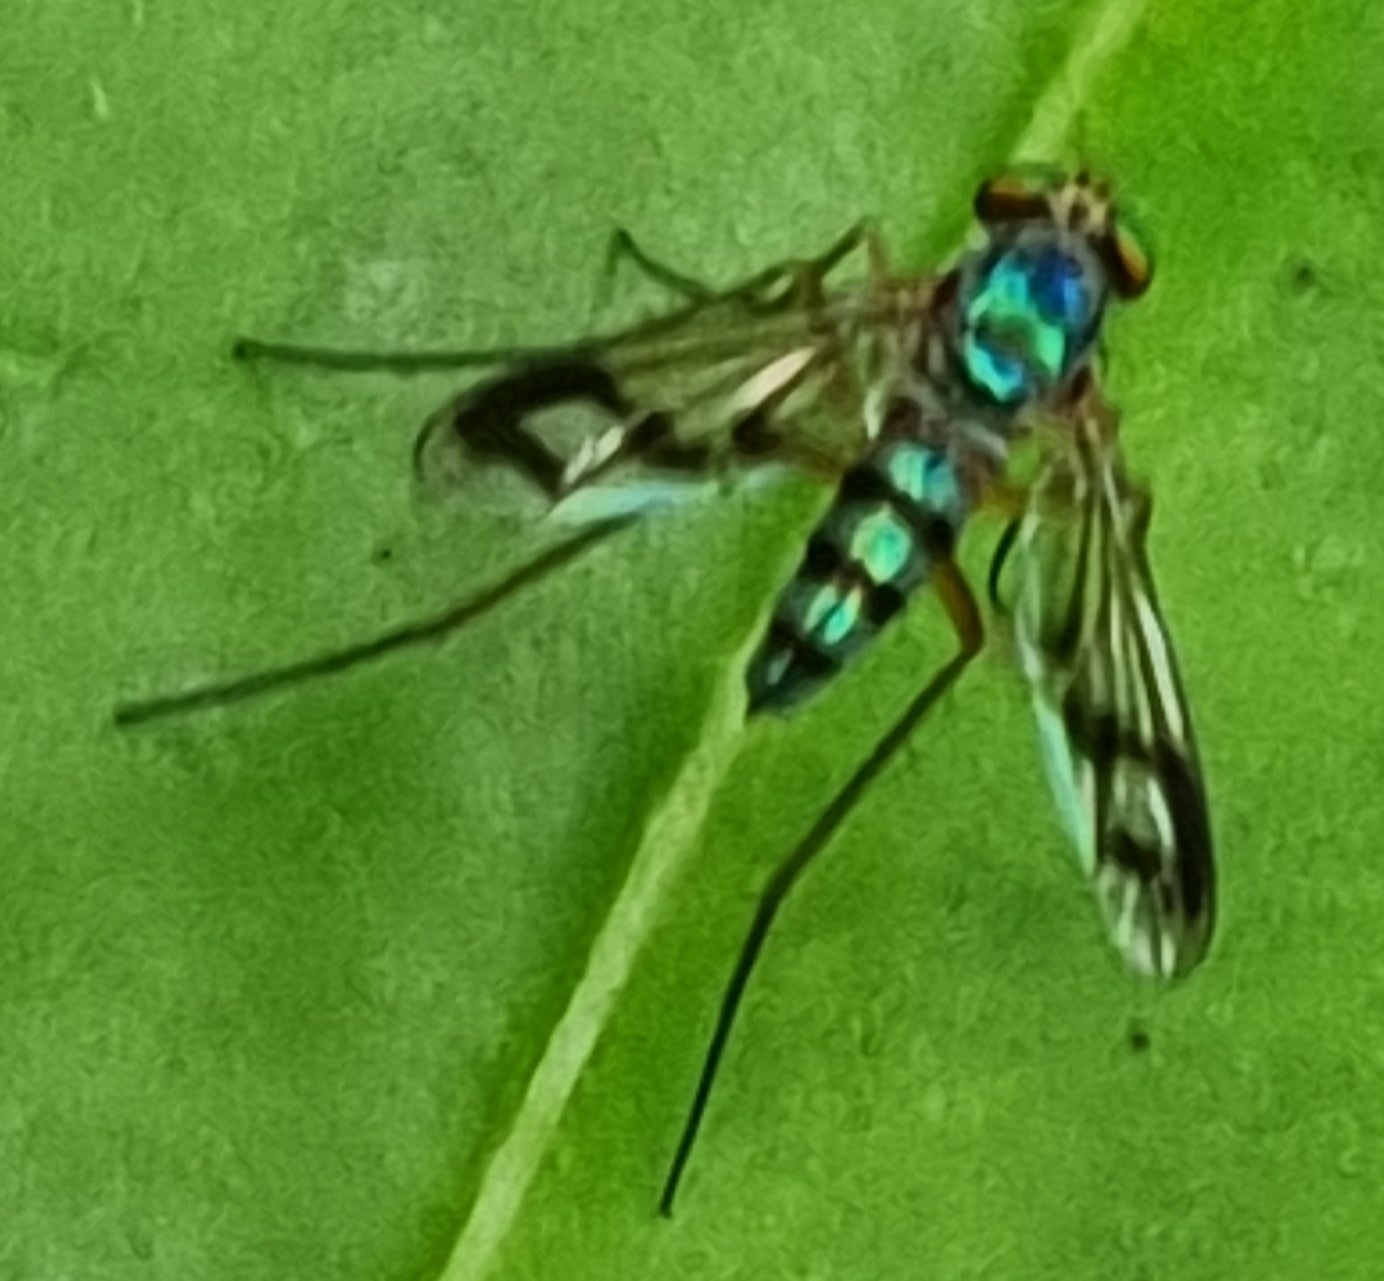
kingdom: Animalia
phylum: Arthropoda
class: Insecta
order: Diptera
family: Dolichopodidae
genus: Heteropsilopus
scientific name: Heteropsilopus khooi
